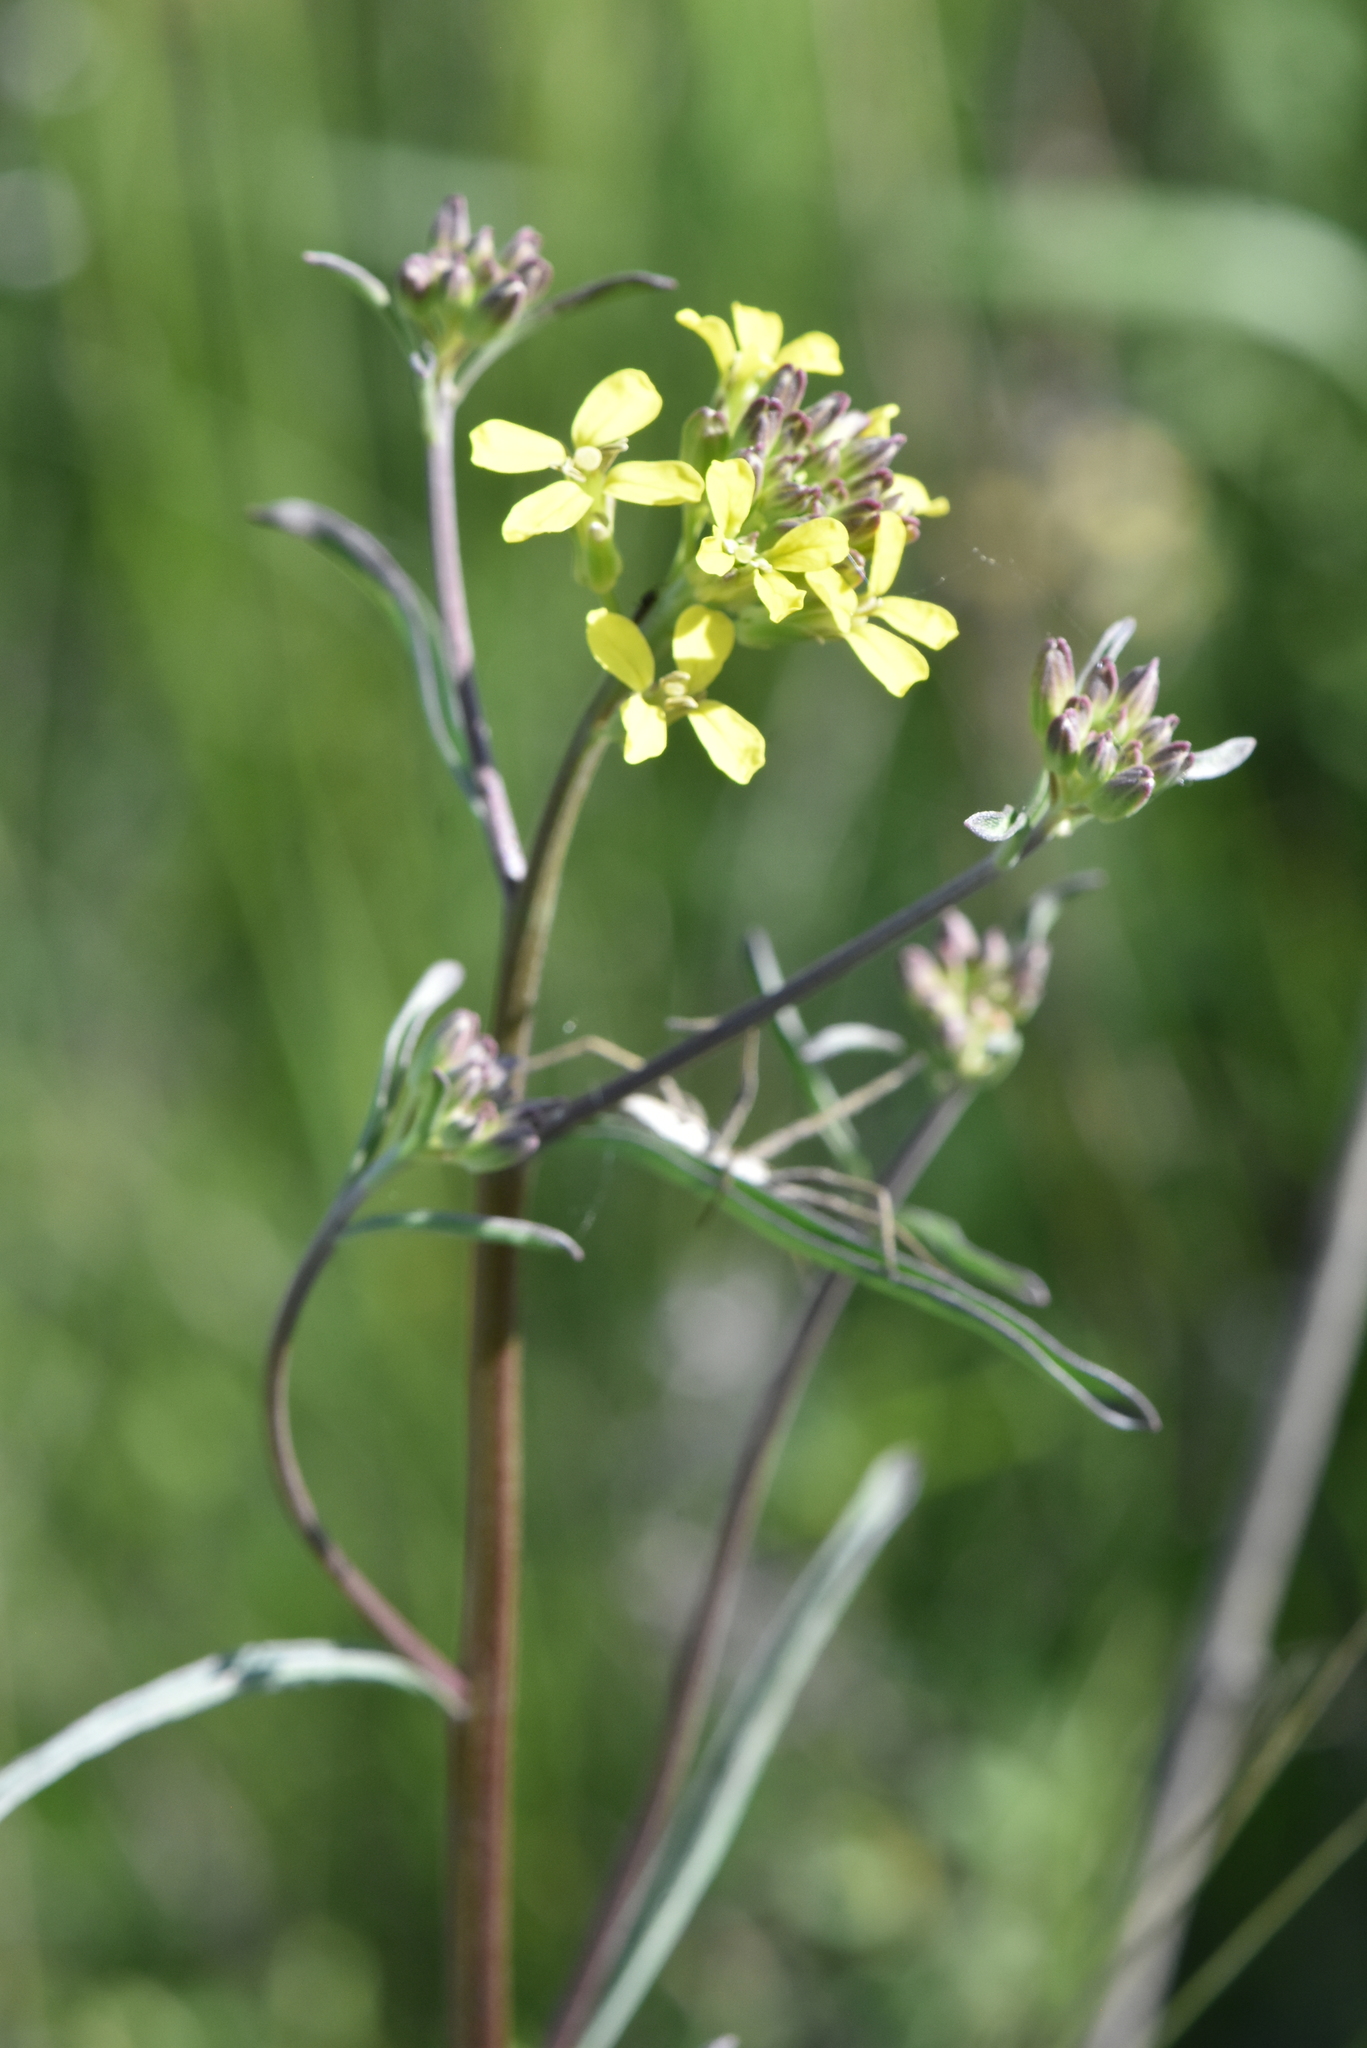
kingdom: Plantae
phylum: Tracheophyta
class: Magnoliopsida
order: Brassicales
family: Brassicaceae
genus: Erysimum
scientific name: Erysimum diffusum
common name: Diffuse wallflower
